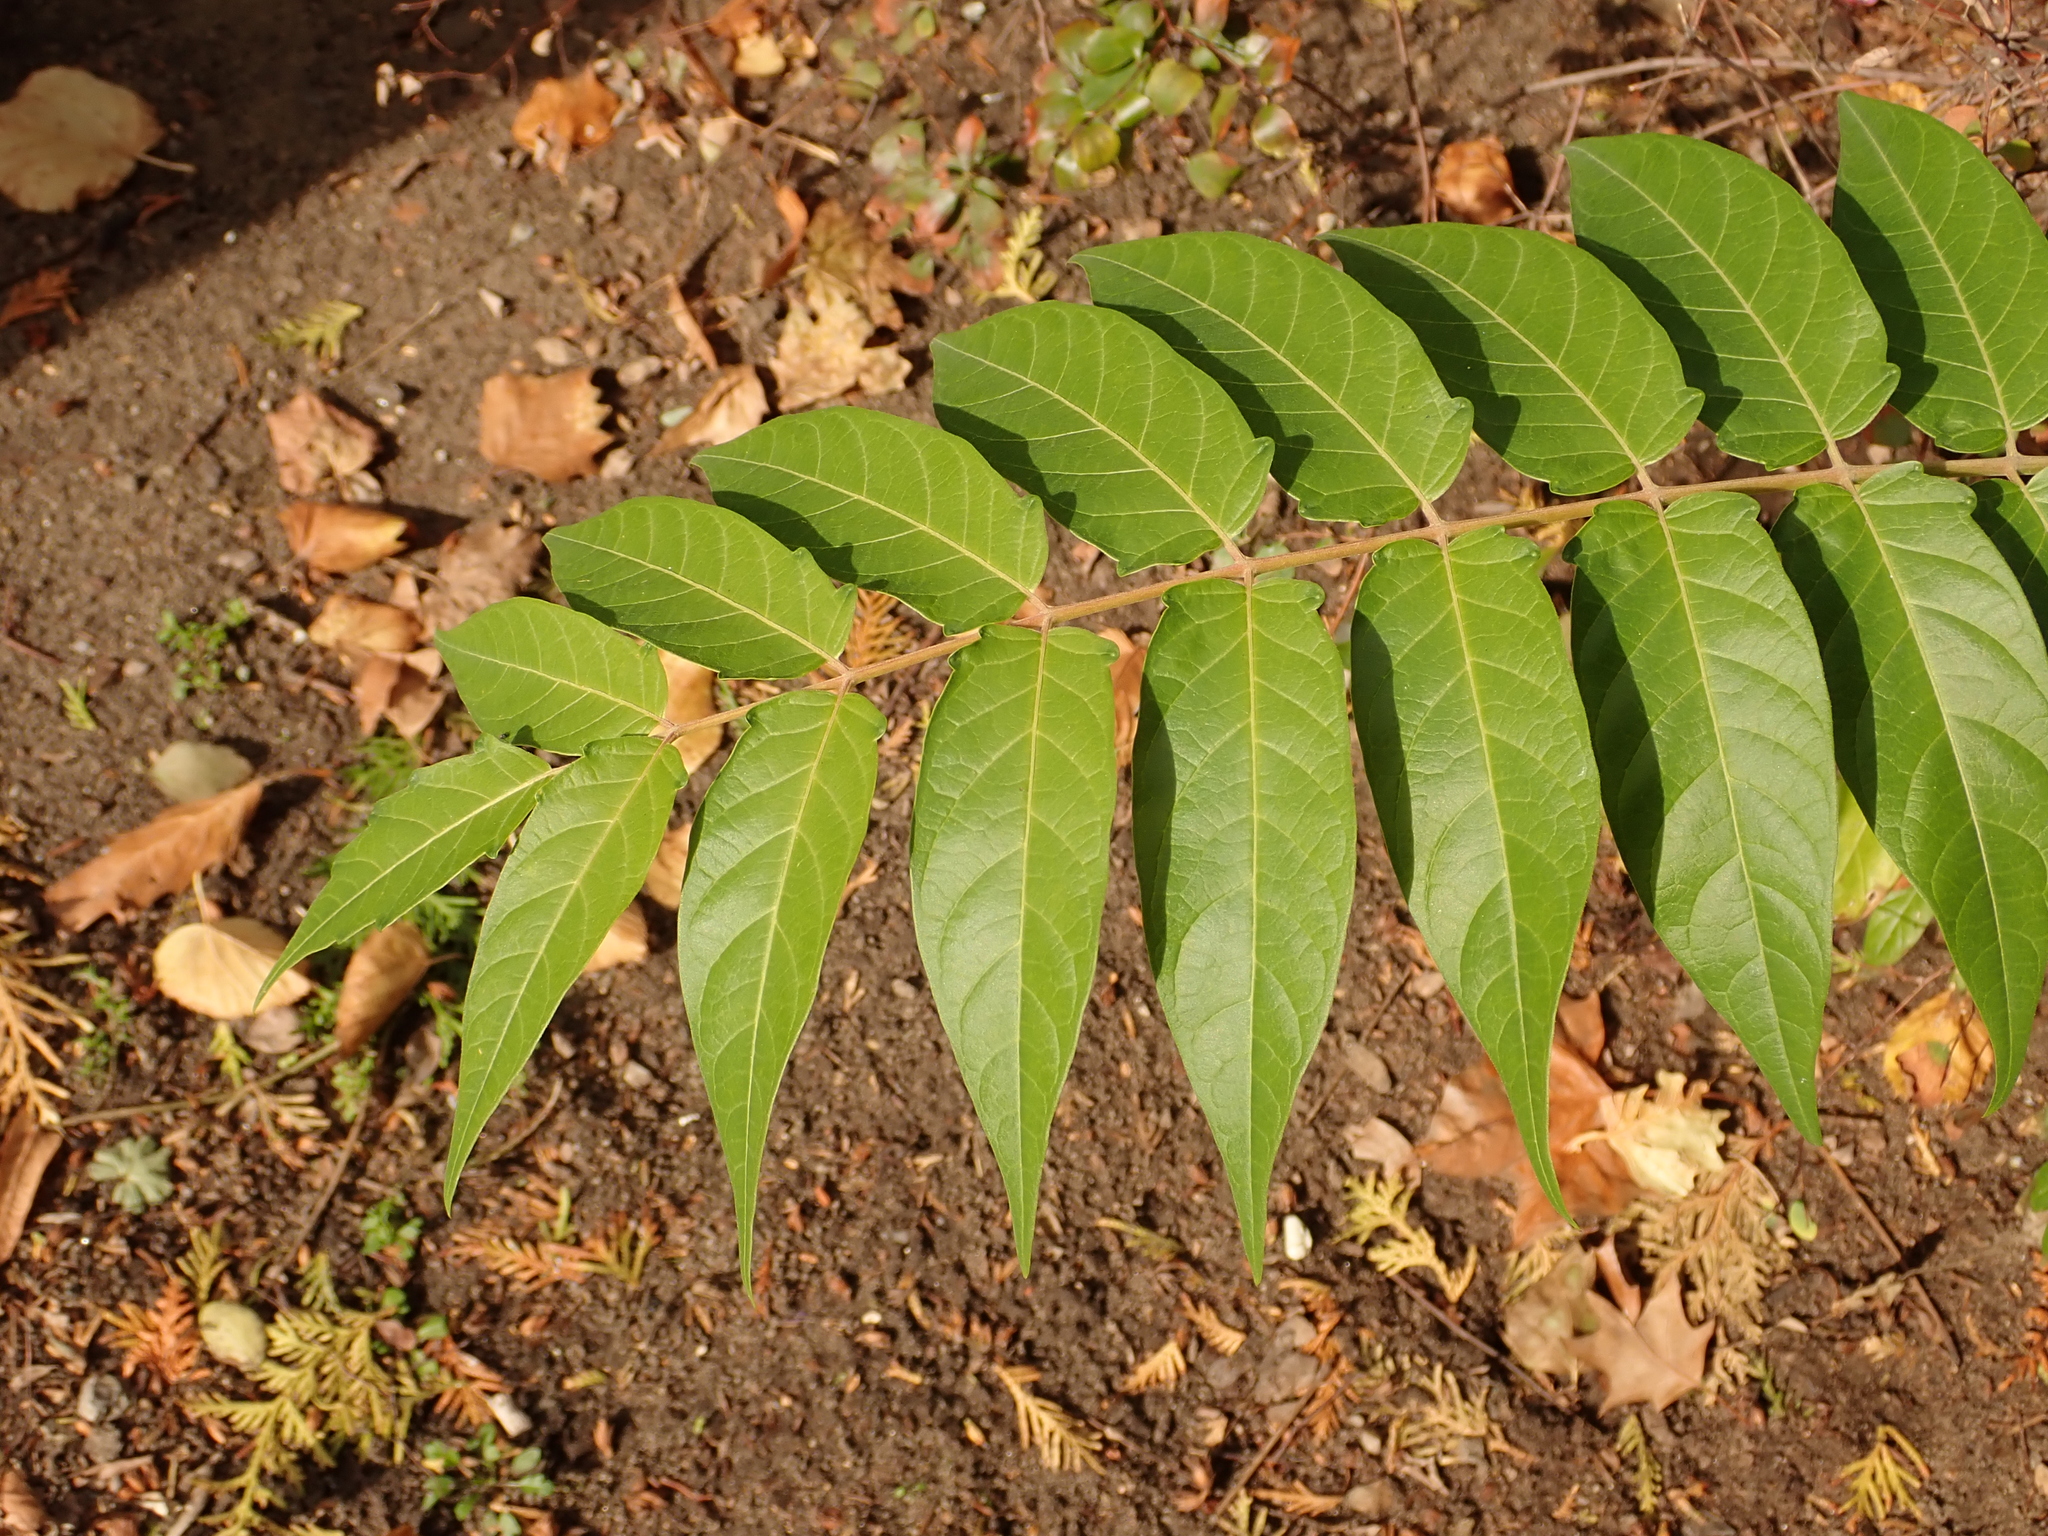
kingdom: Plantae
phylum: Tracheophyta
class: Magnoliopsida
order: Sapindales
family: Simaroubaceae
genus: Ailanthus
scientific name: Ailanthus altissima
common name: Tree-of-heaven
